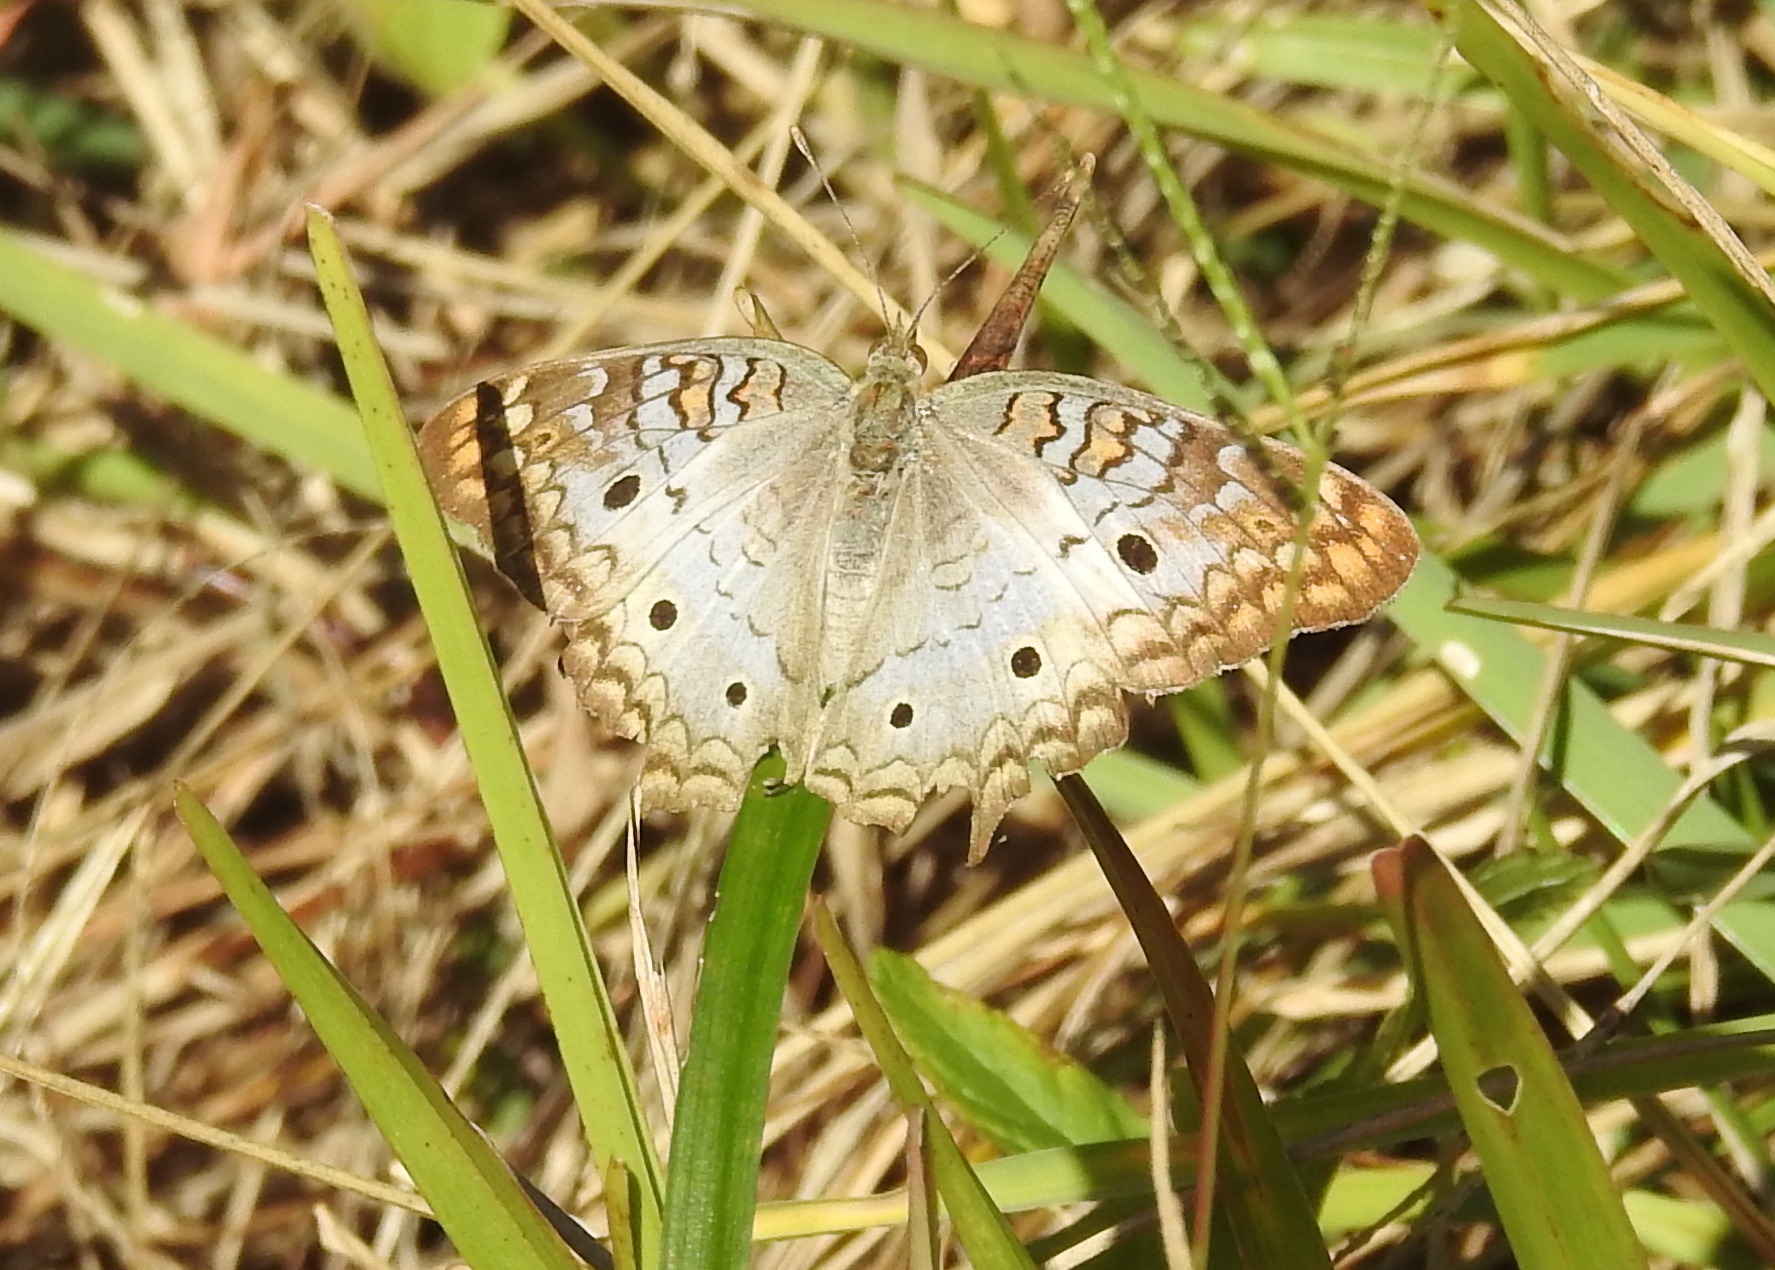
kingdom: Animalia
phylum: Arthropoda
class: Insecta
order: Lepidoptera
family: Nymphalidae
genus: Anartia
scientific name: Anartia jatrophae
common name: White peacock
